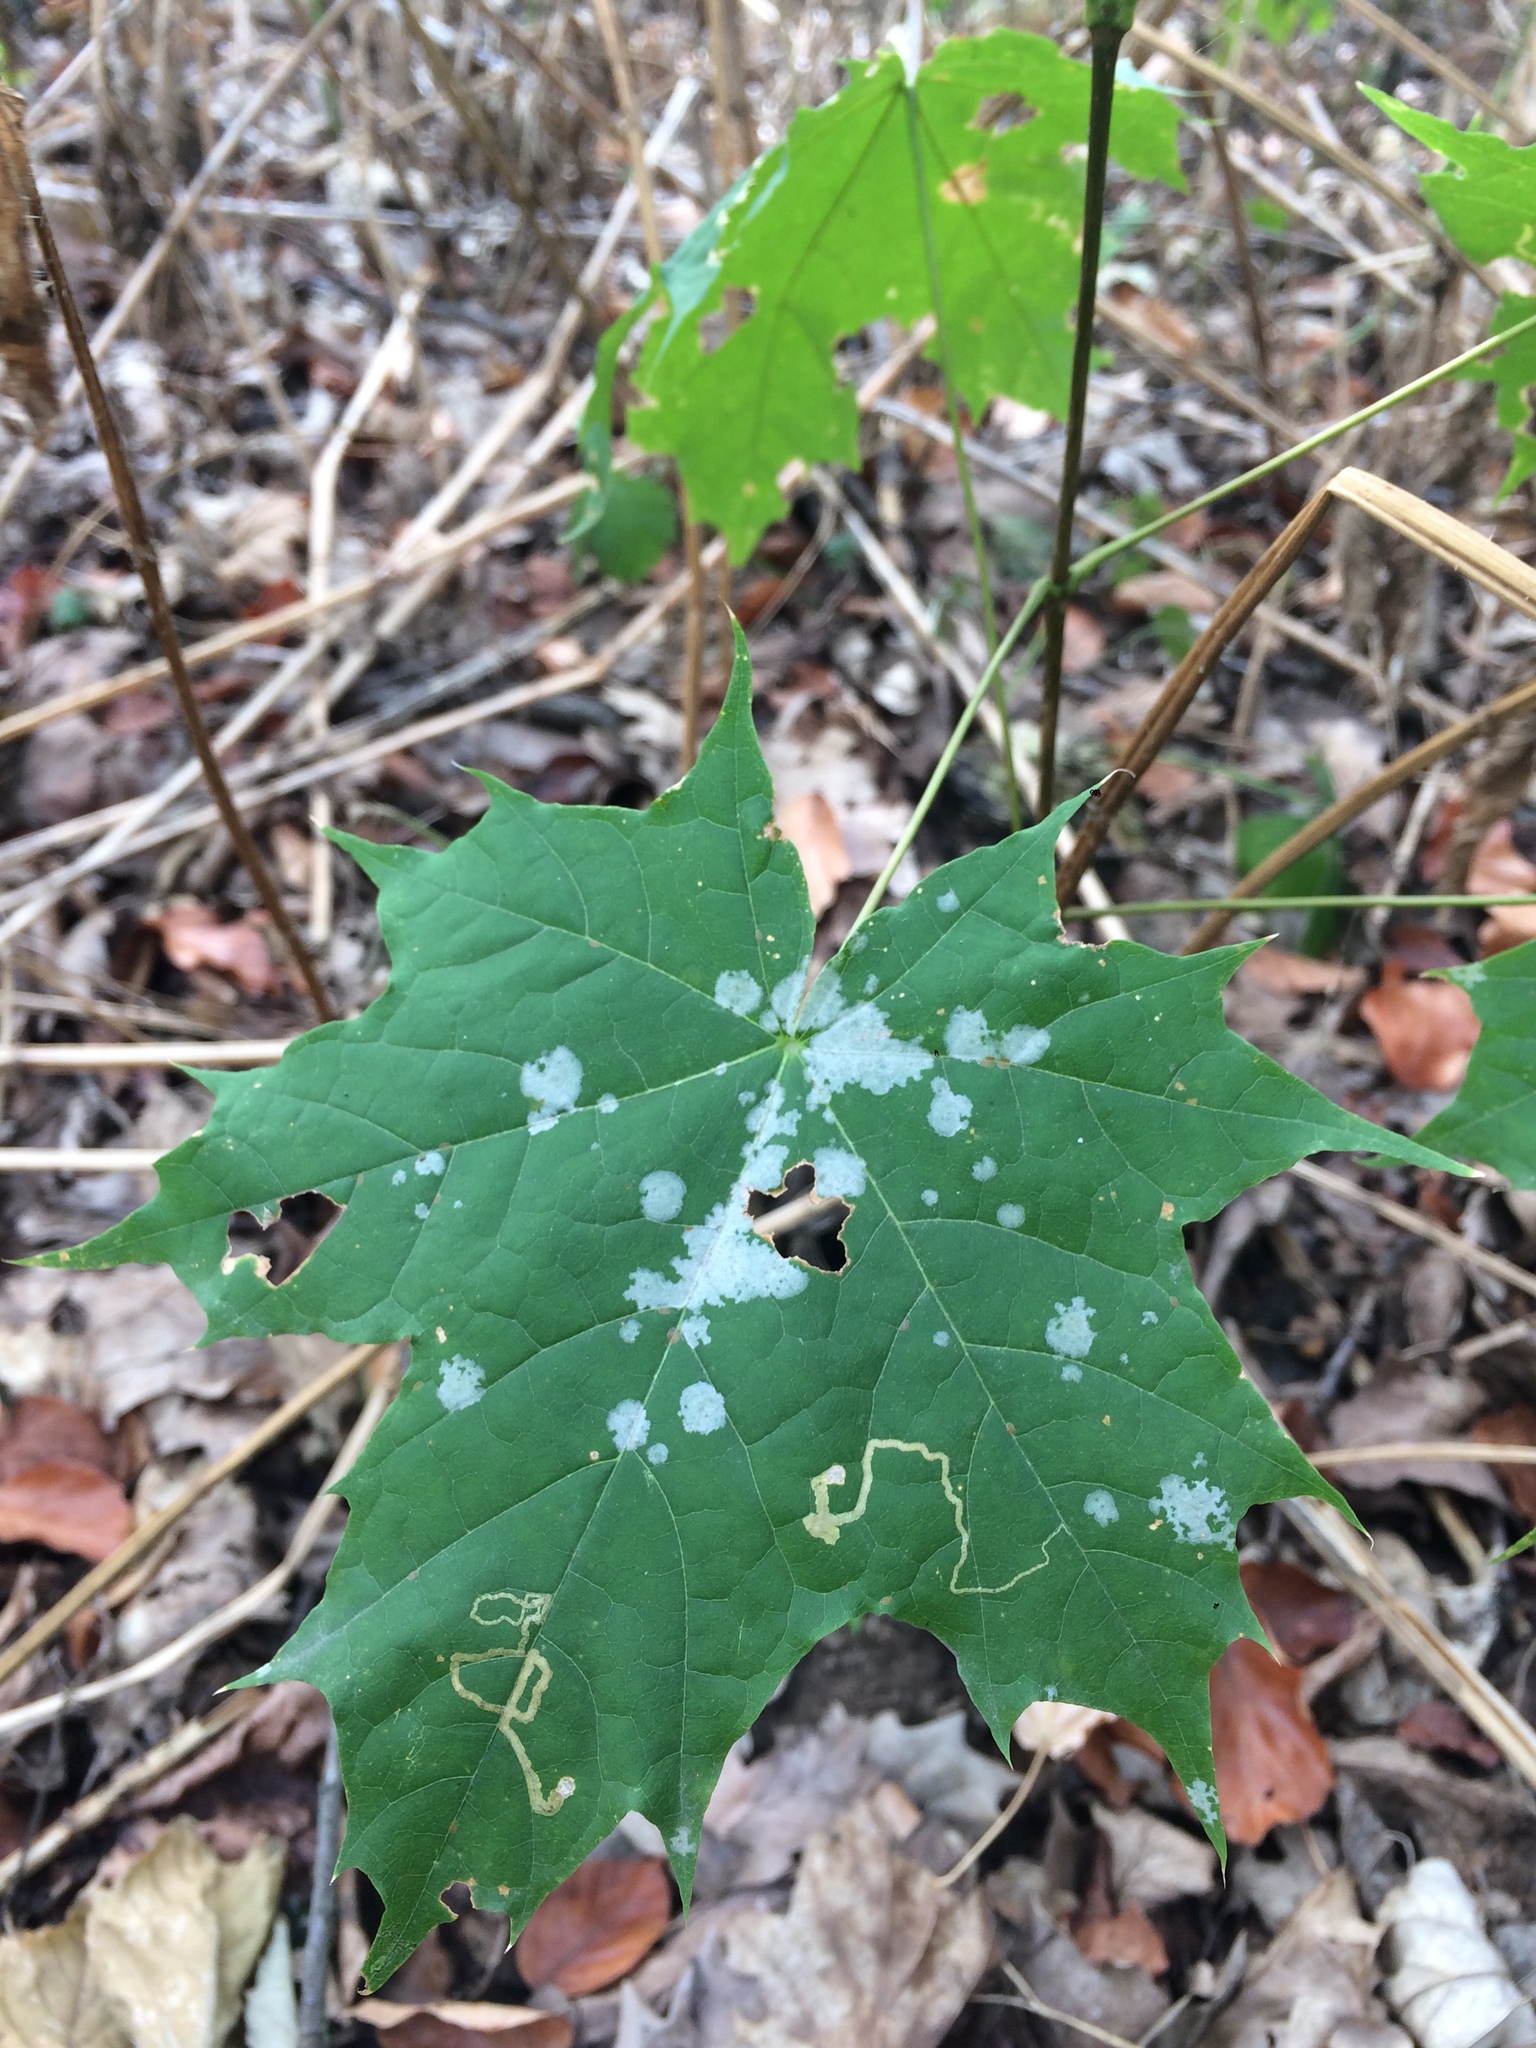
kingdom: Animalia
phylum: Arthropoda
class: Insecta
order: Lepidoptera
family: Nepticulidae
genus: Stigmella
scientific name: Stigmella aceris
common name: Scarce maple pigmy
